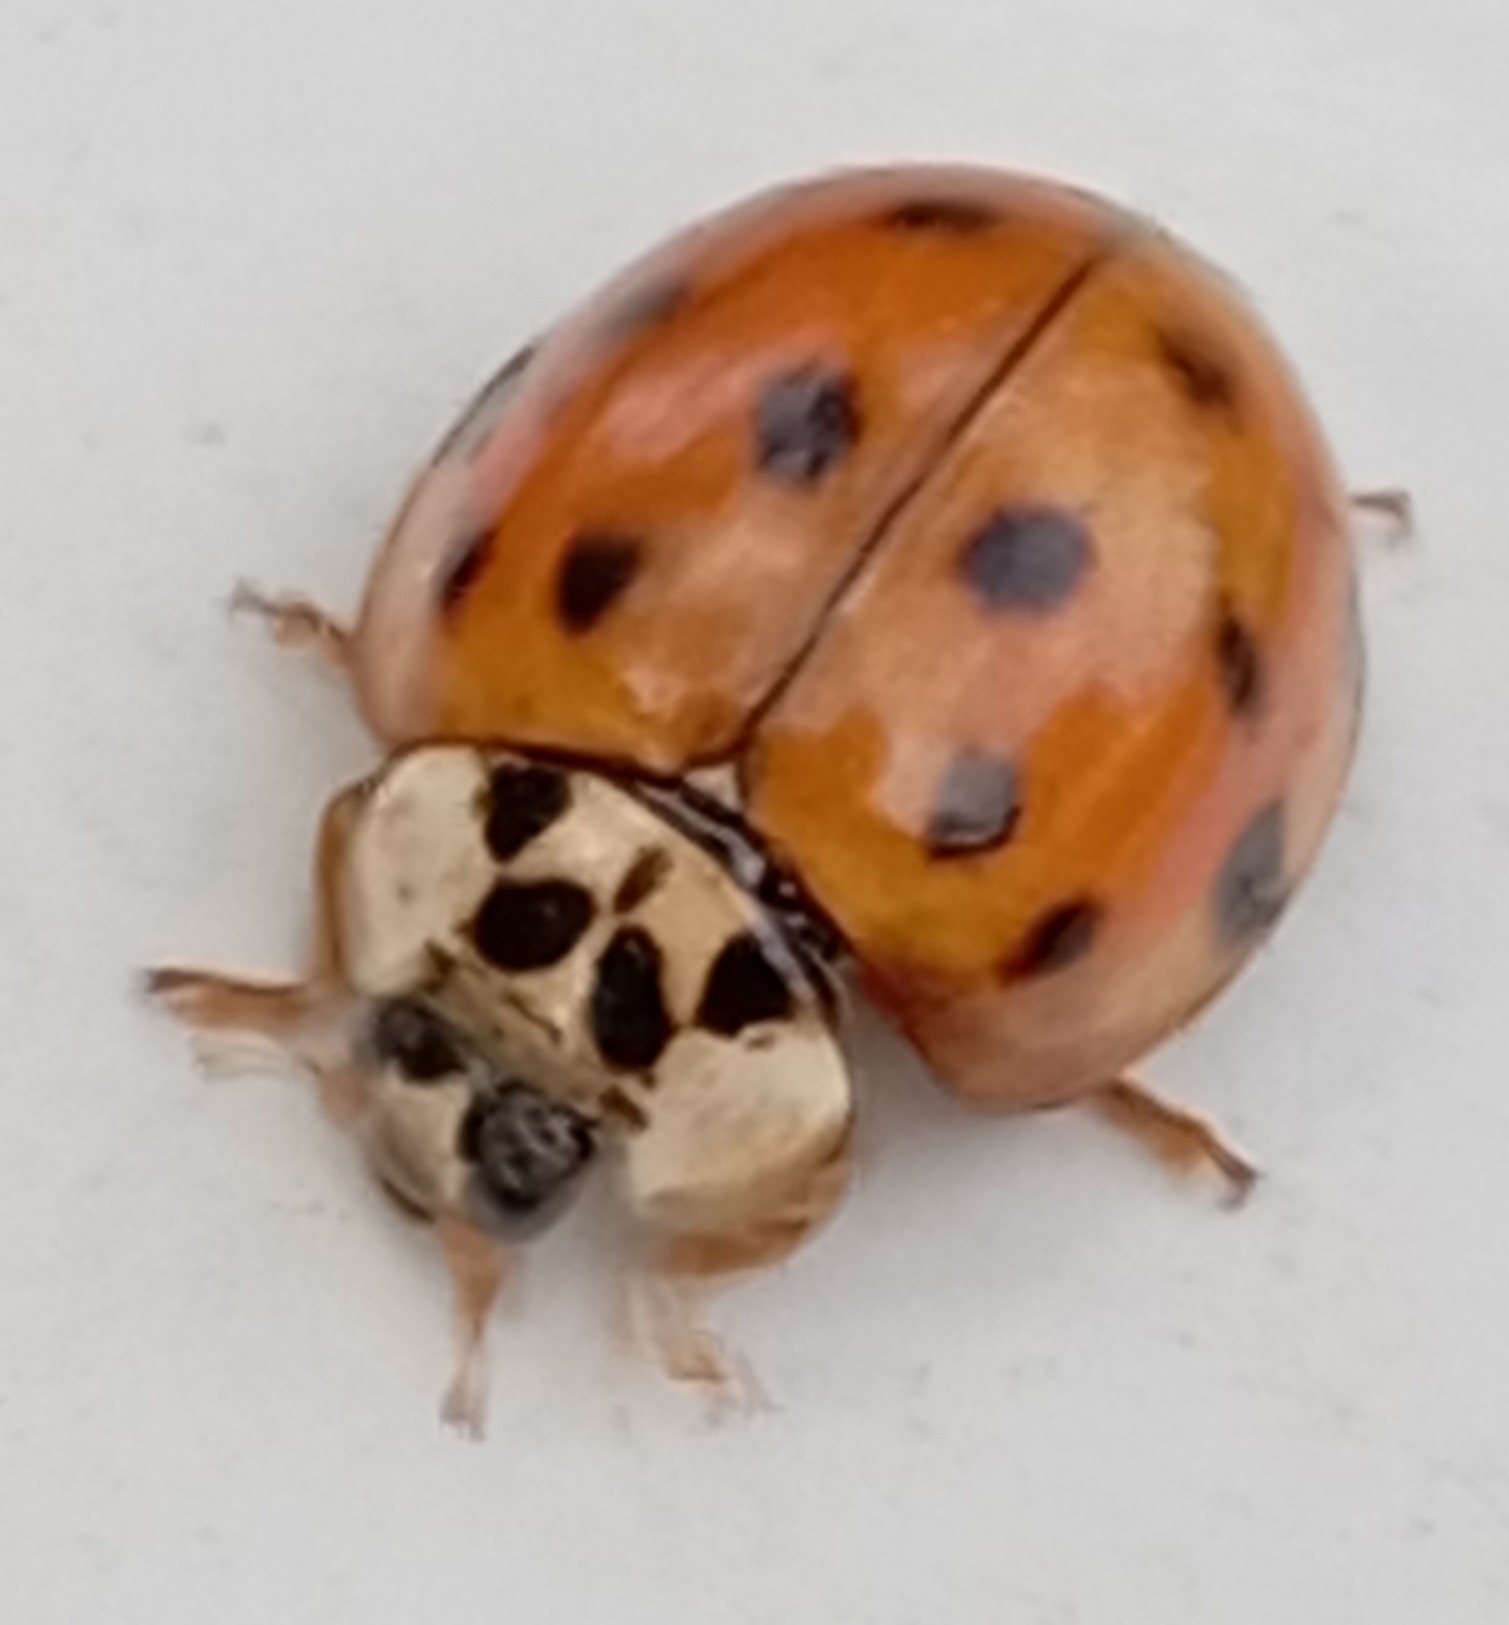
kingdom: Animalia
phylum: Arthropoda
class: Insecta
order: Coleoptera
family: Coccinellidae
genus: Harmonia
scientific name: Harmonia axyridis
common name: Harlequin ladybird
